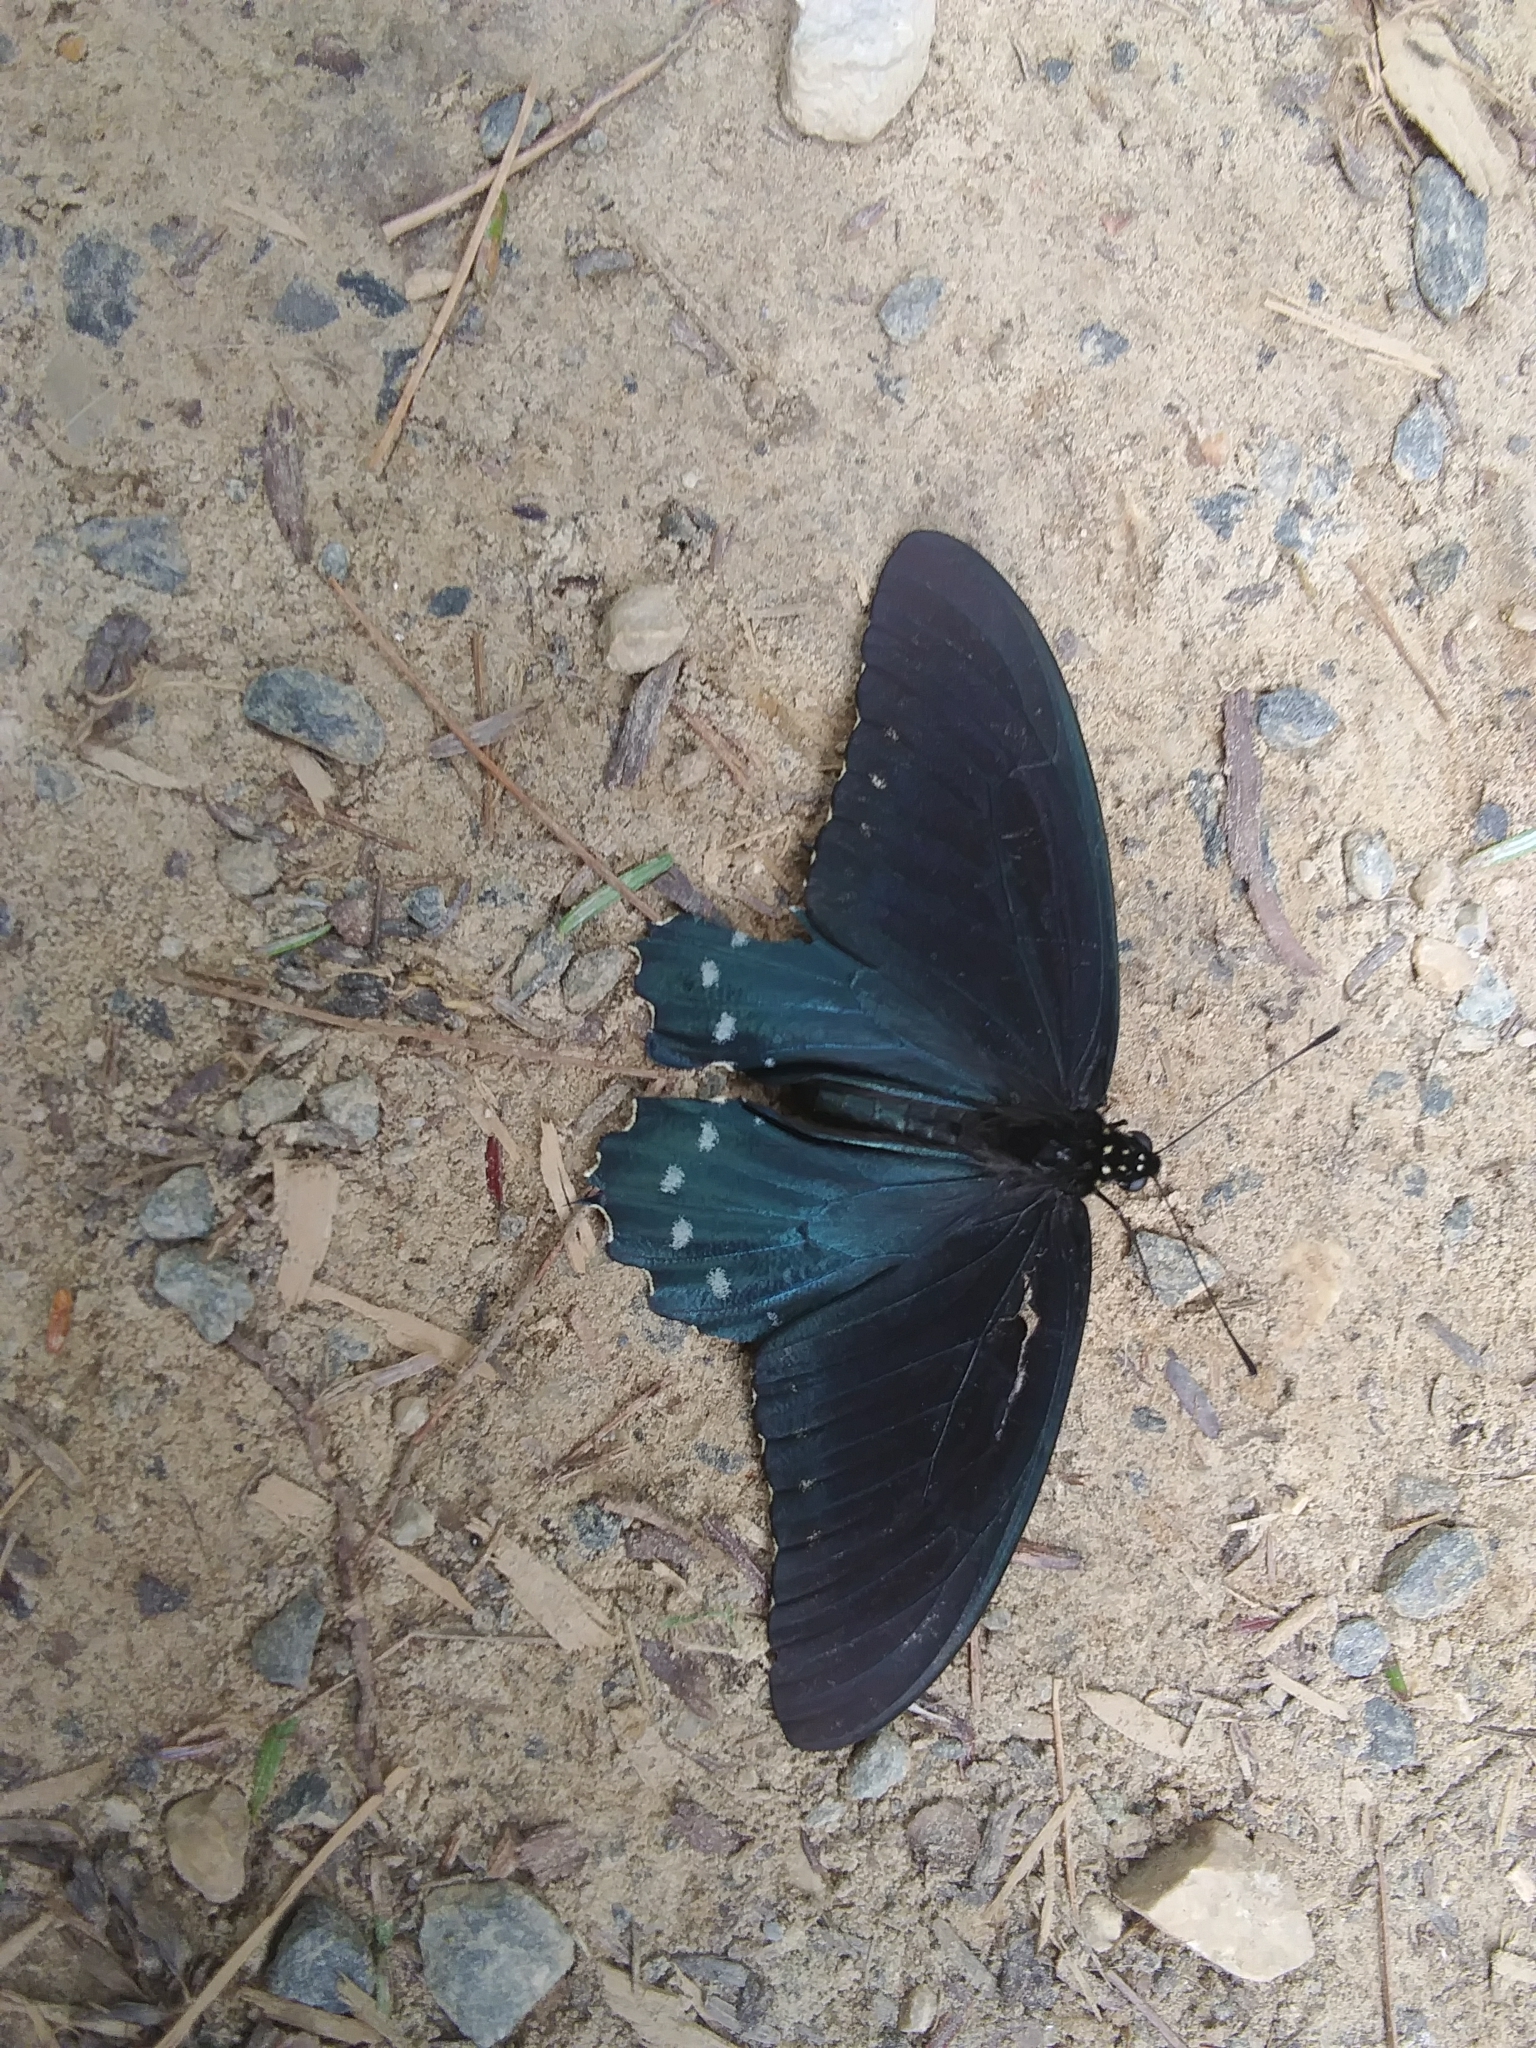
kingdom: Animalia
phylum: Arthropoda
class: Insecta
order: Lepidoptera
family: Papilionidae
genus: Battus
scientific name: Battus philenor
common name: Pipevine swallowtail
